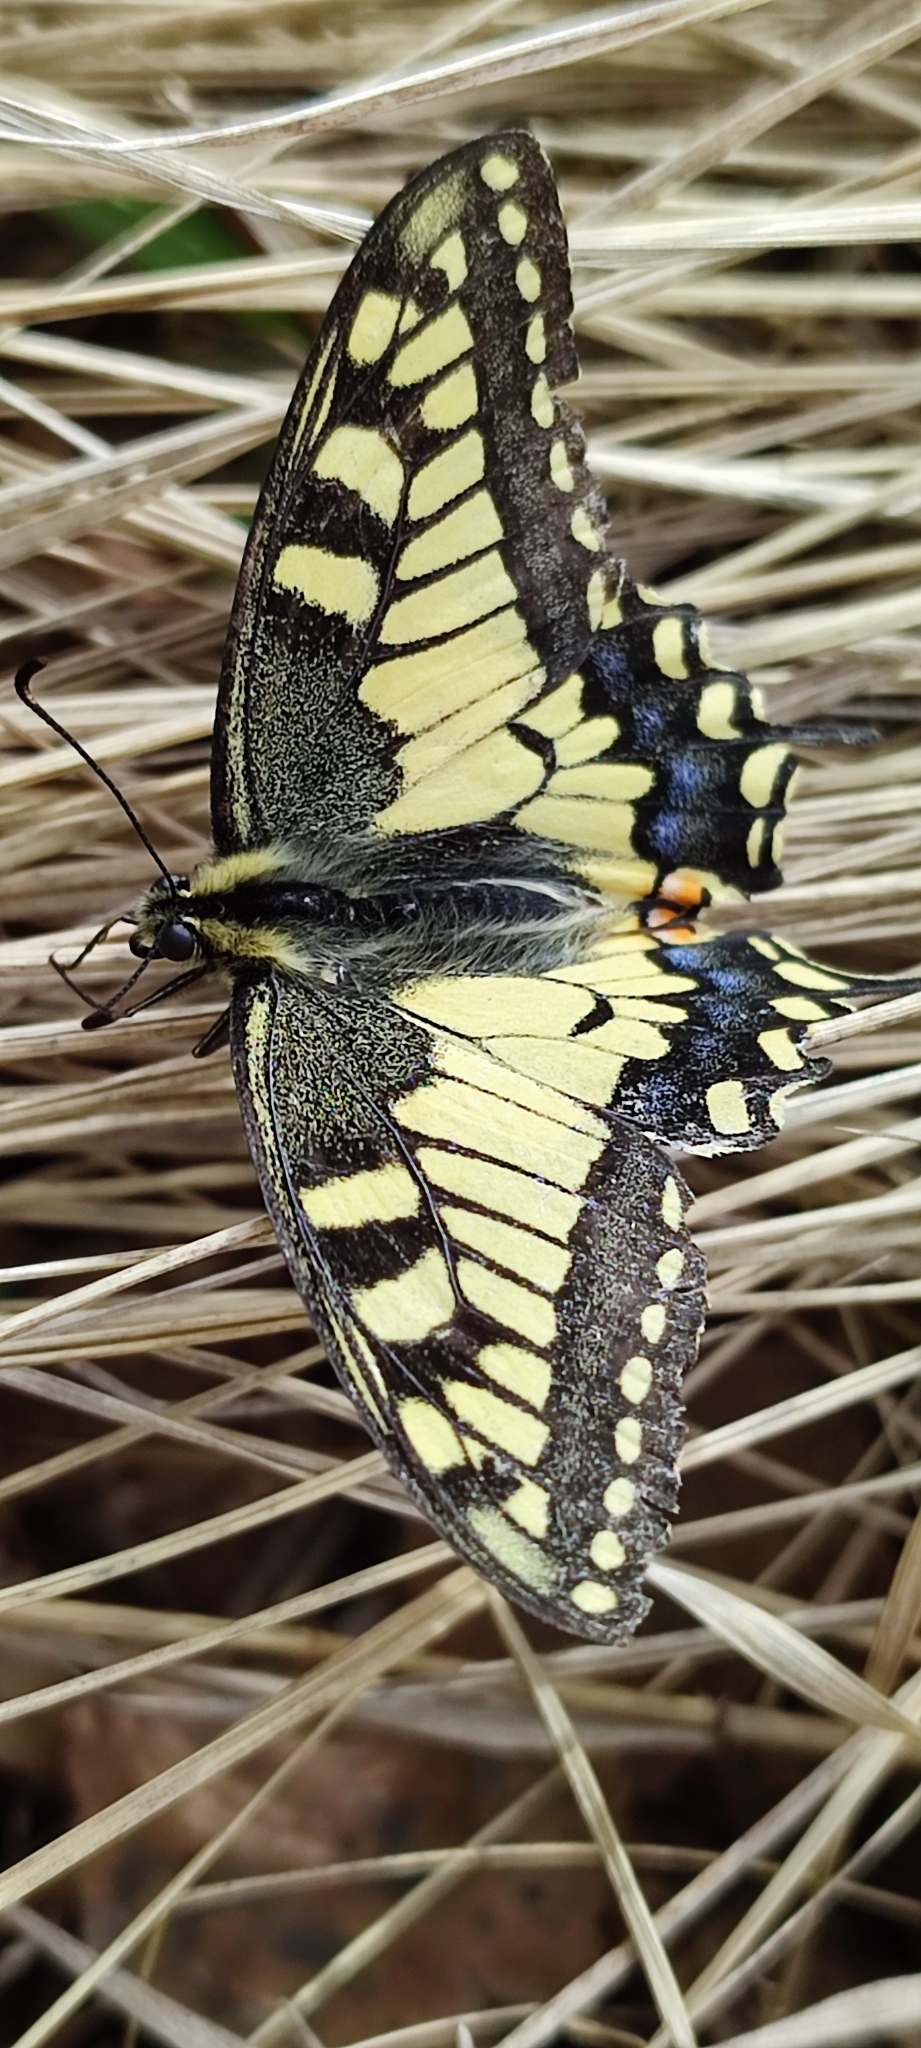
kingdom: Animalia
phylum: Arthropoda
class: Insecta
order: Lepidoptera
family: Papilionidae
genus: Papilio
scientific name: Papilio machaon
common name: Swallowtail
